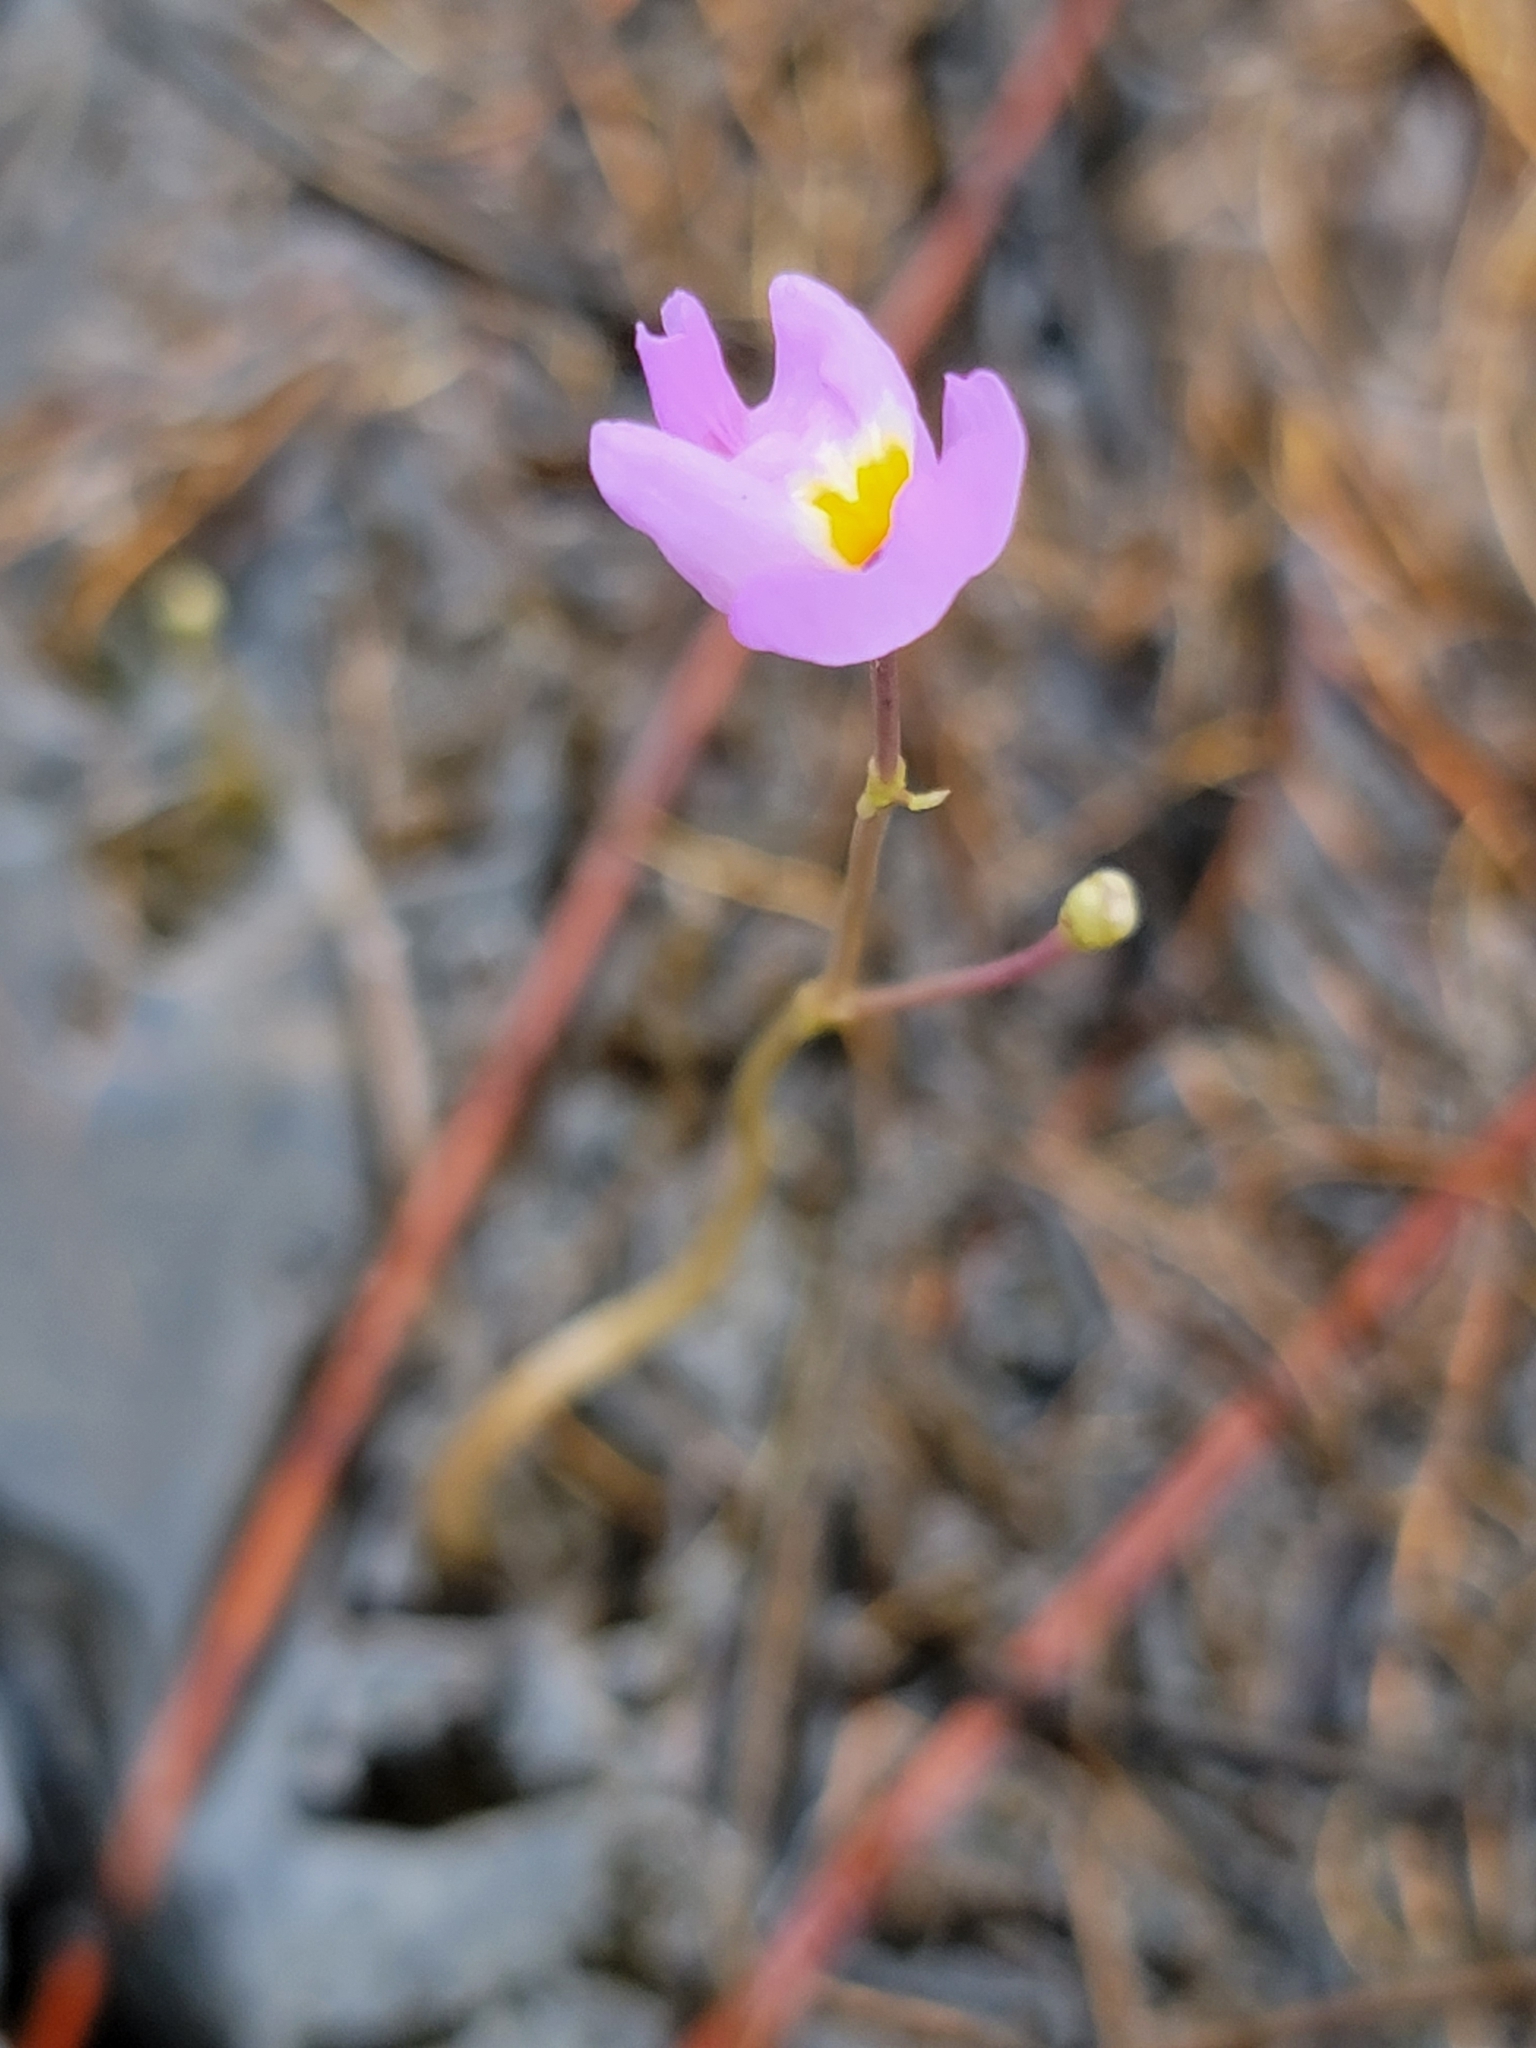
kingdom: Plantae
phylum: Tracheophyta
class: Magnoliopsida
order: Lamiales
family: Lentibulariaceae
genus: Utricularia
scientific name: Utricularia purpurea
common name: Eastern purple bladderwort
